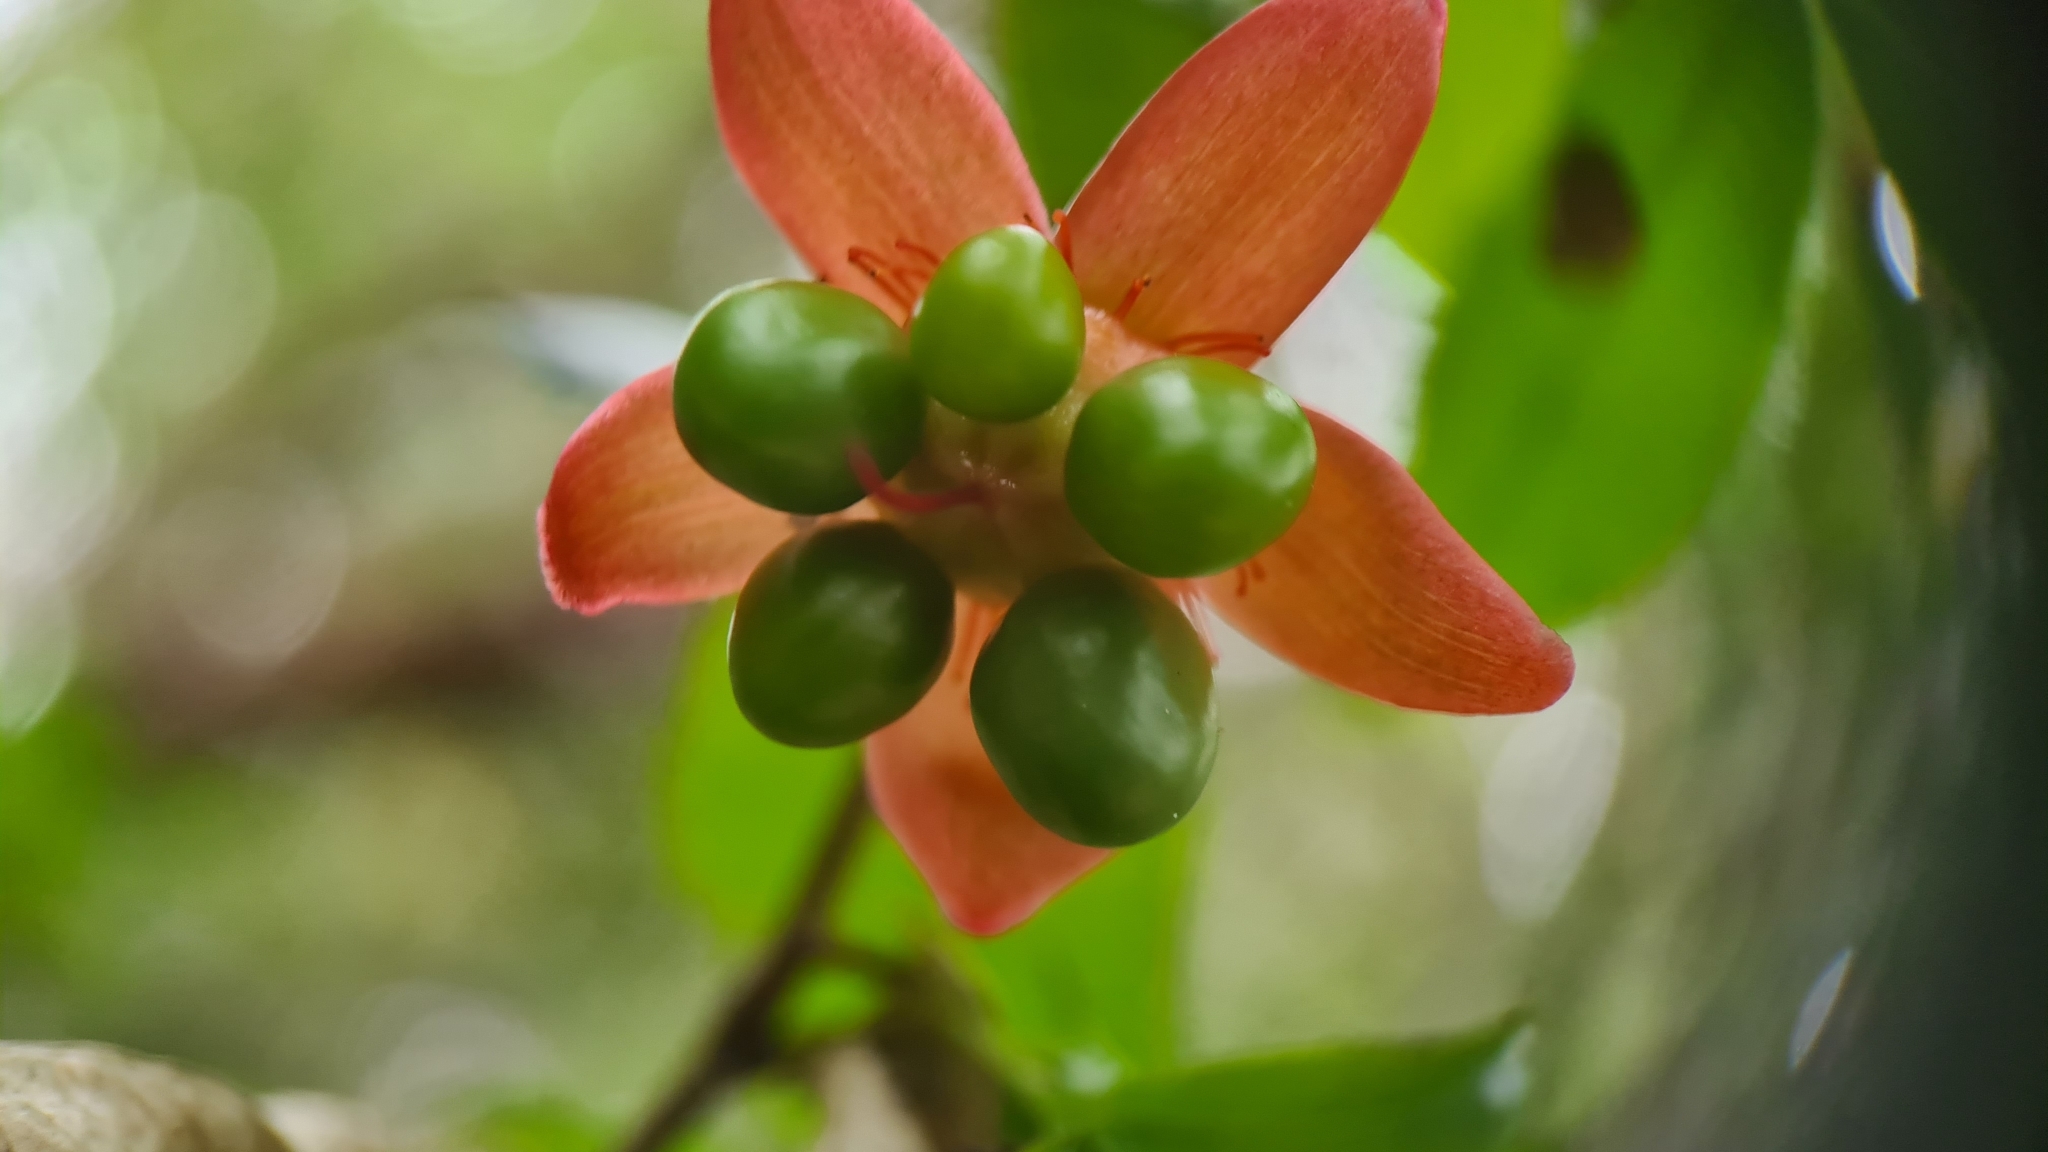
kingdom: Plantae
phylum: Tracheophyta
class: Magnoliopsida
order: Malpighiales
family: Ochnaceae
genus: Ochna
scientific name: Ochna serrulata
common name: Mickey mouse plant
